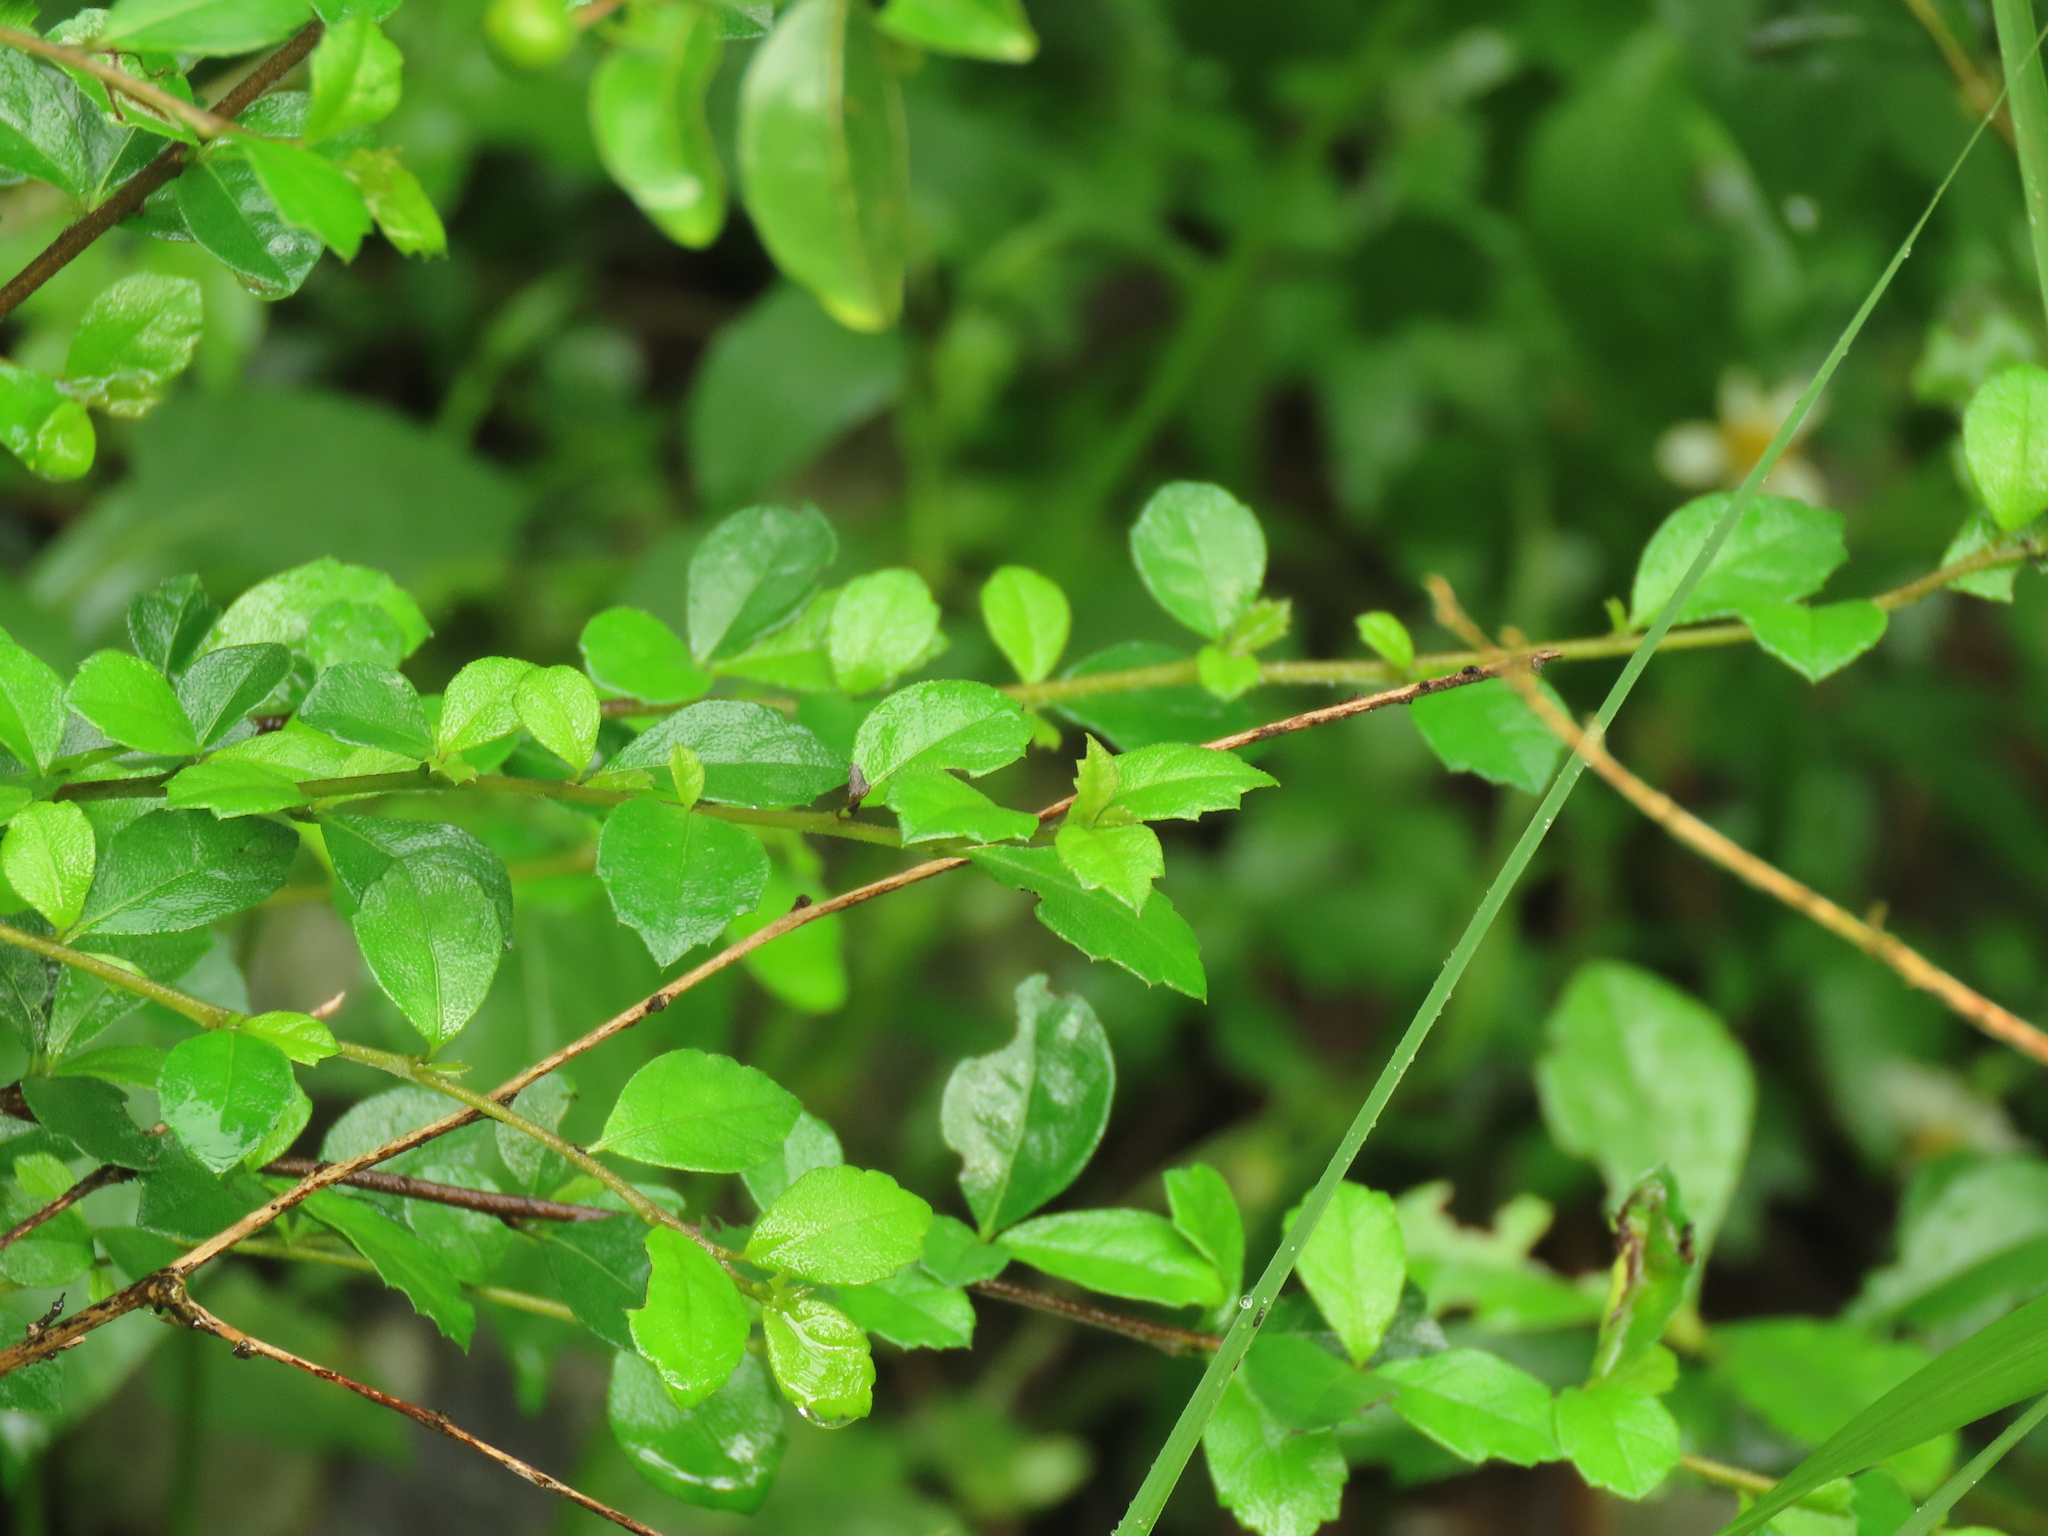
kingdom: Plantae
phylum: Tracheophyta
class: Magnoliopsida
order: Boraginales
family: Ehretiaceae
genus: Ehretia
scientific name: Ehretia microphylla
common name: Fukien-tea
